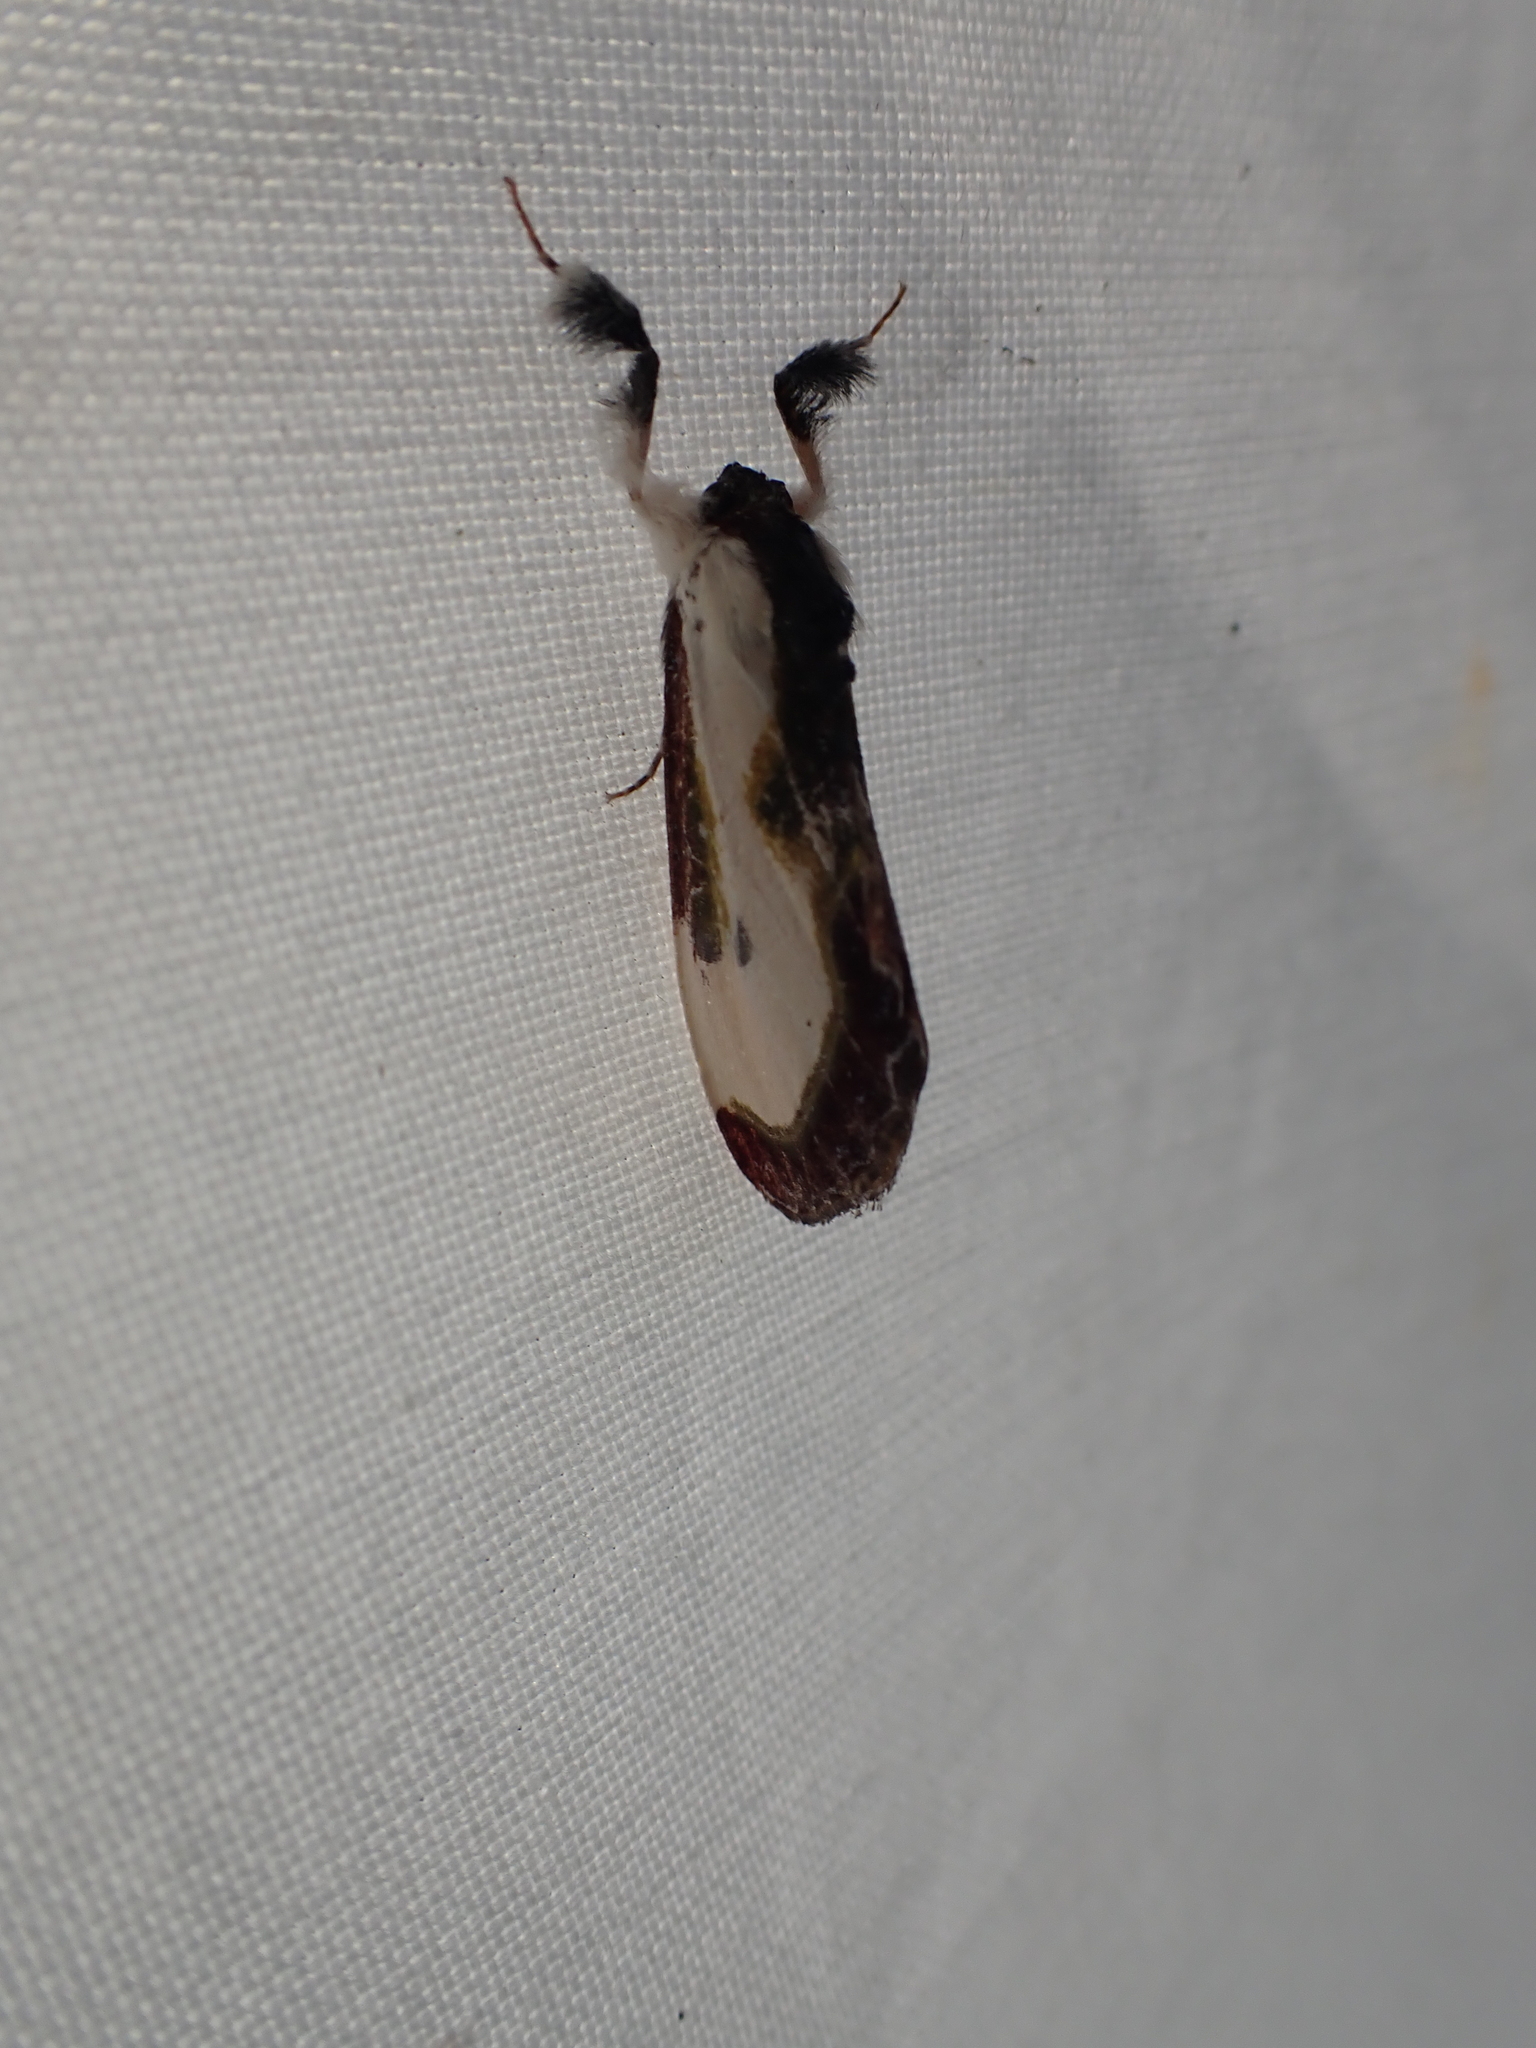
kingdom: Animalia
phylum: Arthropoda
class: Insecta
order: Lepidoptera
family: Noctuidae
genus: Eudryas
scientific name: Eudryas grata
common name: Beautiful wood-nymph
